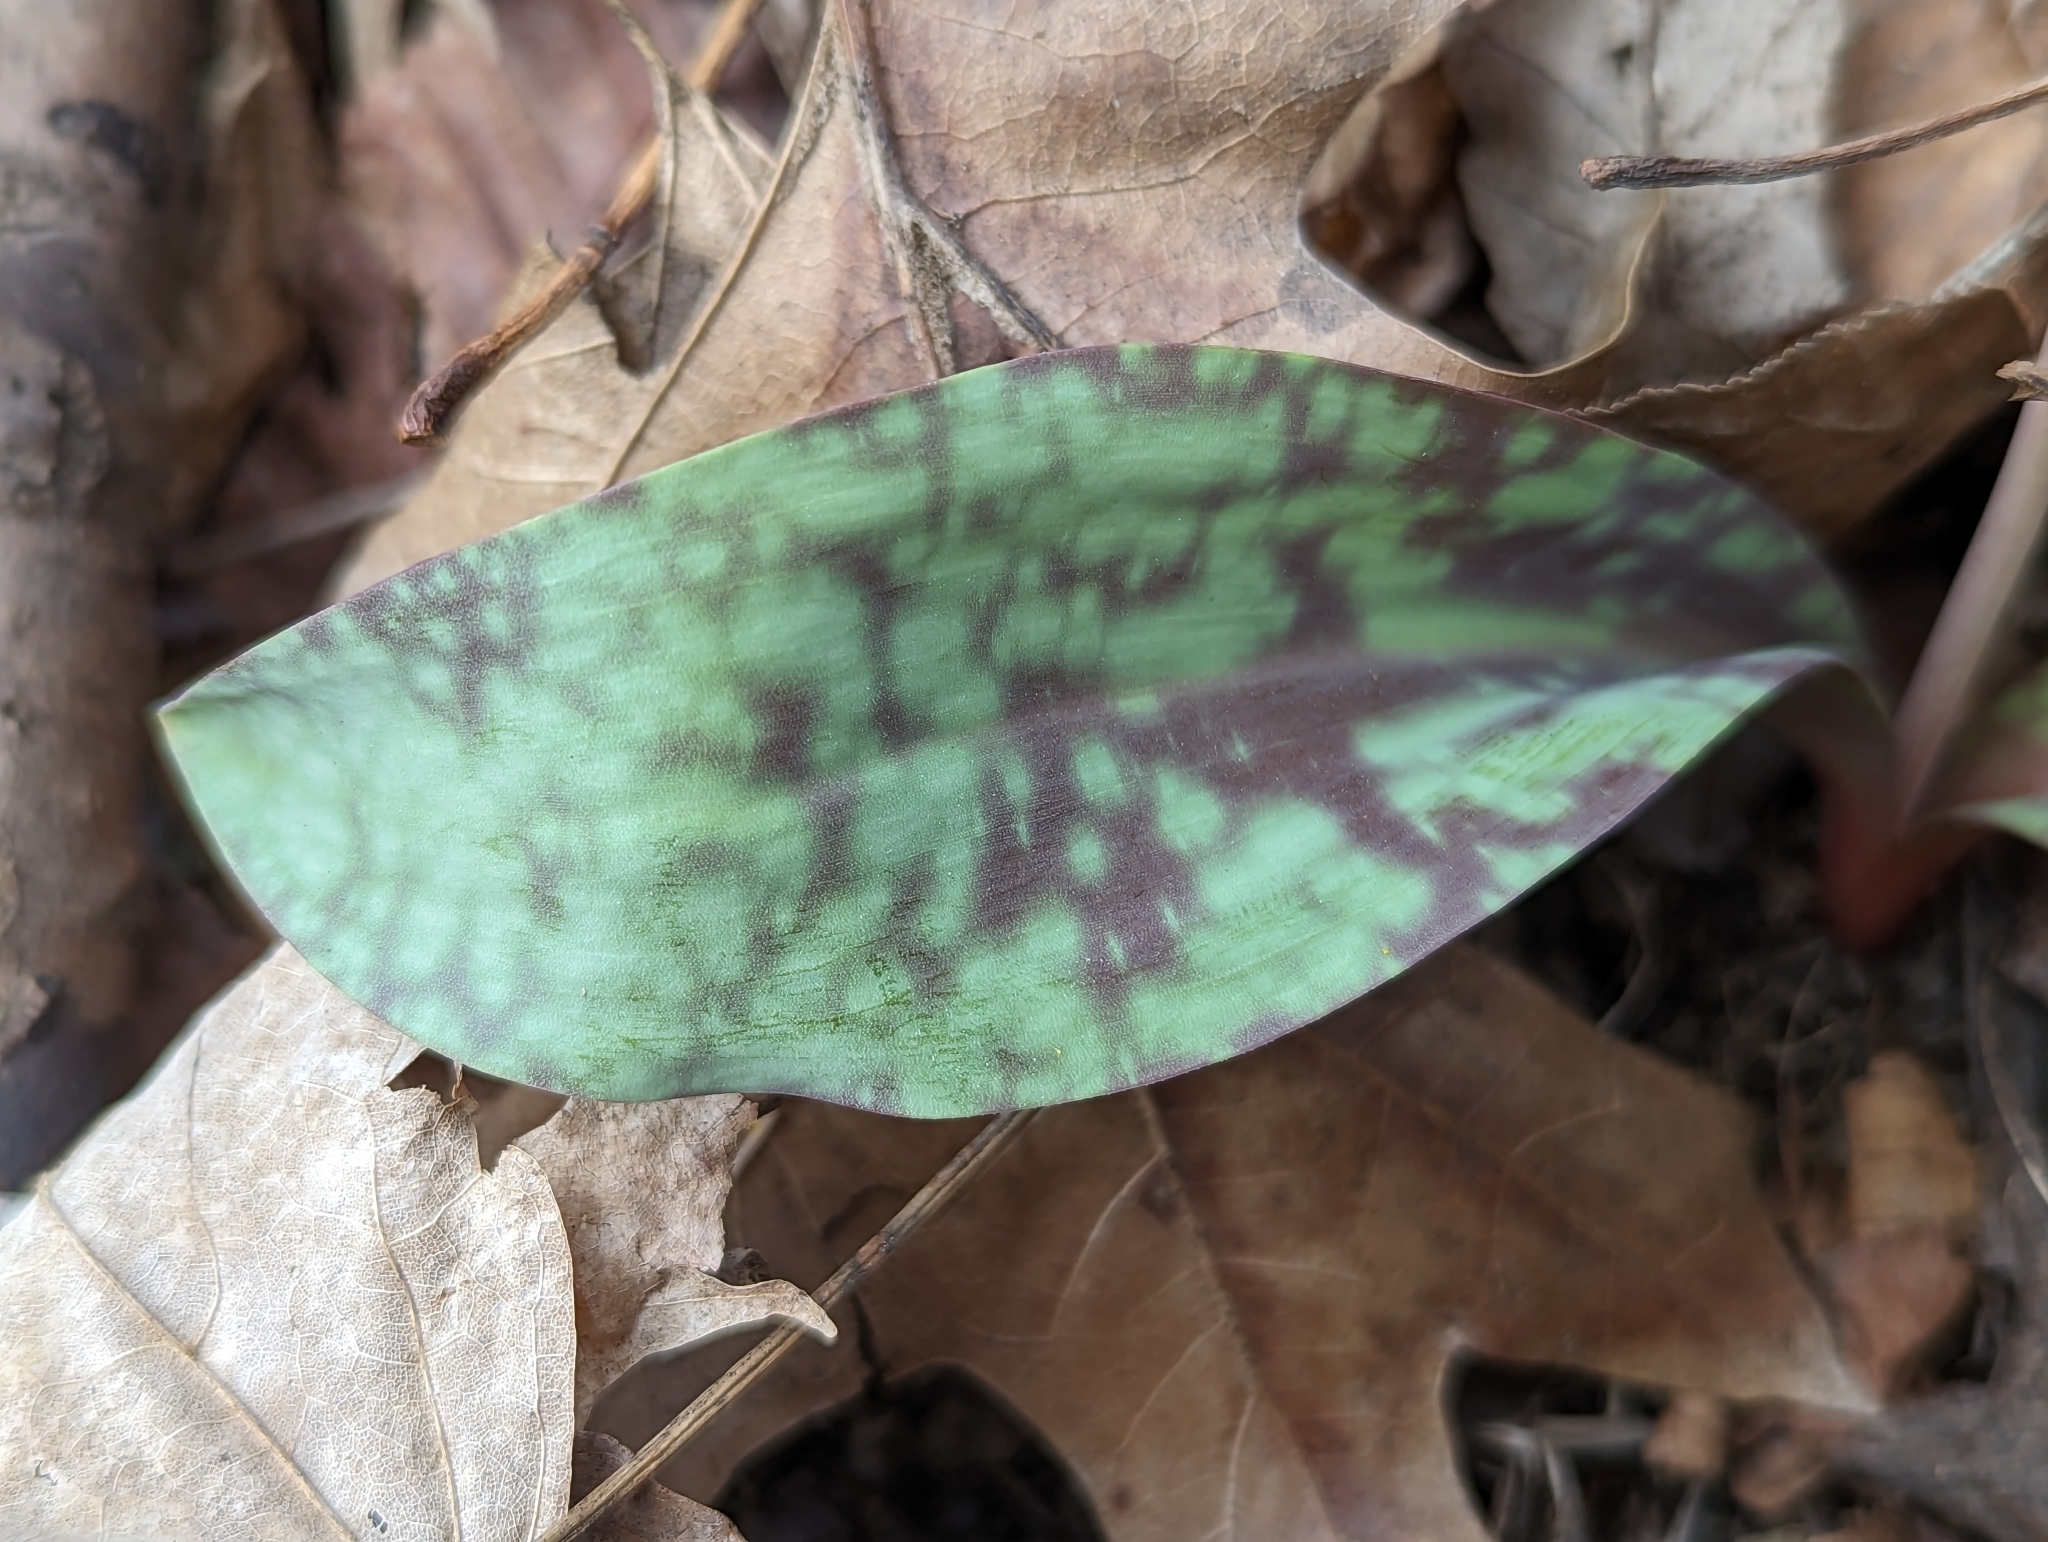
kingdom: Plantae
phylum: Tracheophyta
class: Liliopsida
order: Liliales
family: Liliaceae
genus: Erythronium
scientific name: Erythronium albidum
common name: White trout-lily
